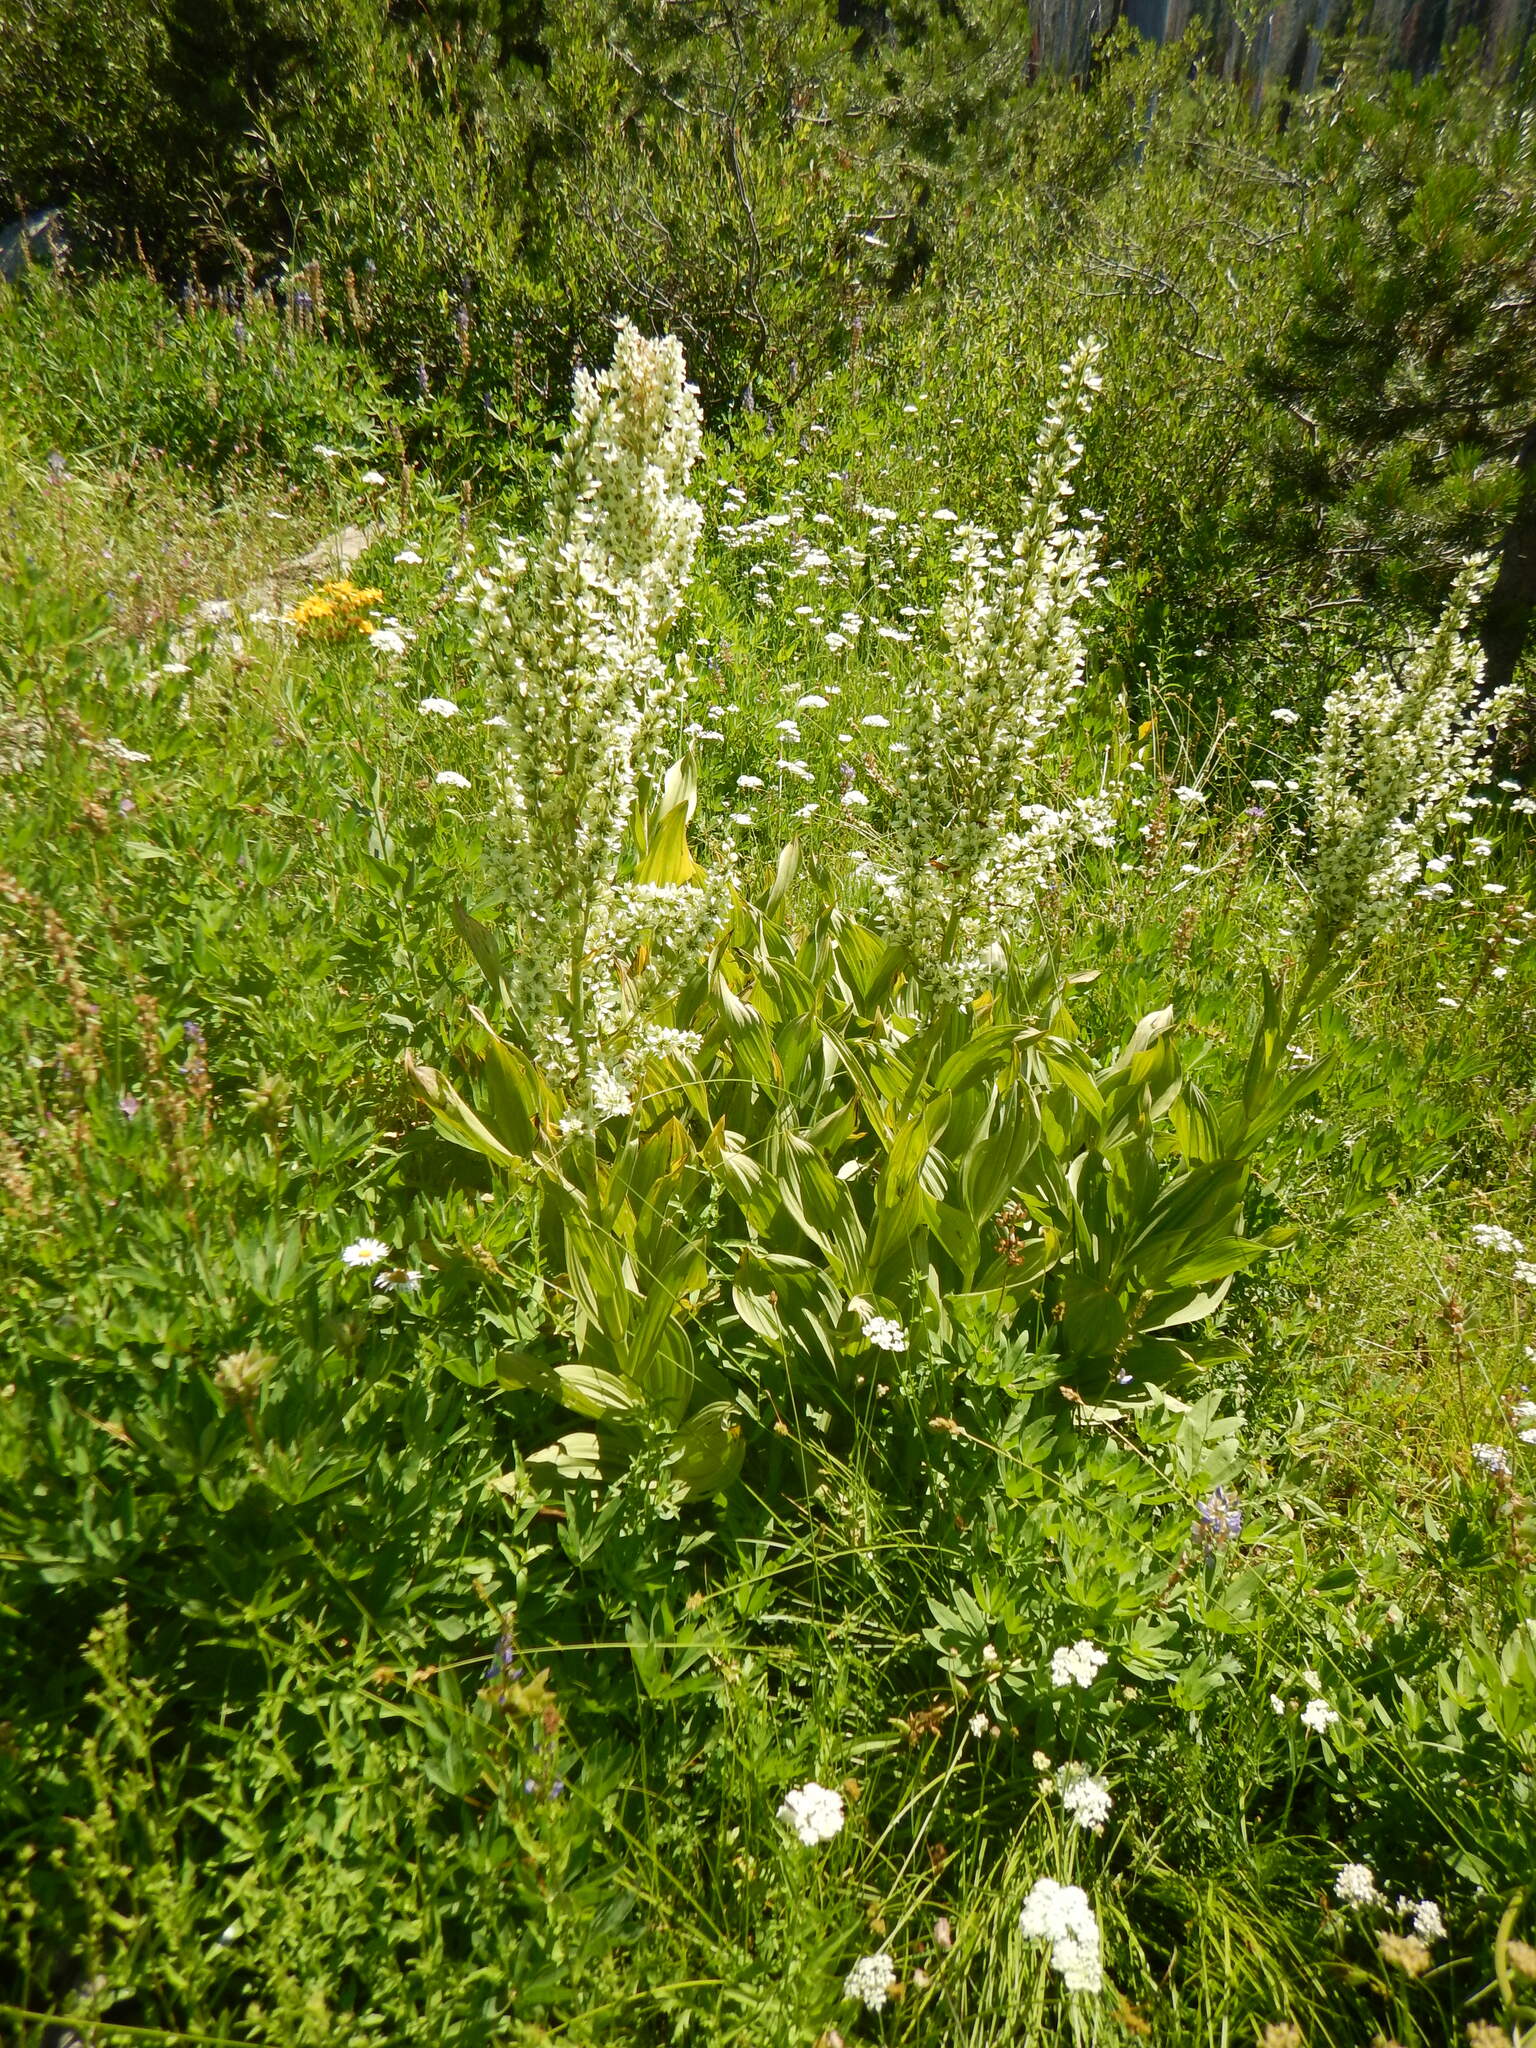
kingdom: Plantae
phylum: Tracheophyta
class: Liliopsida
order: Liliales
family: Melanthiaceae
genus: Veratrum
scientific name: Veratrum californicum
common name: California veratrum
